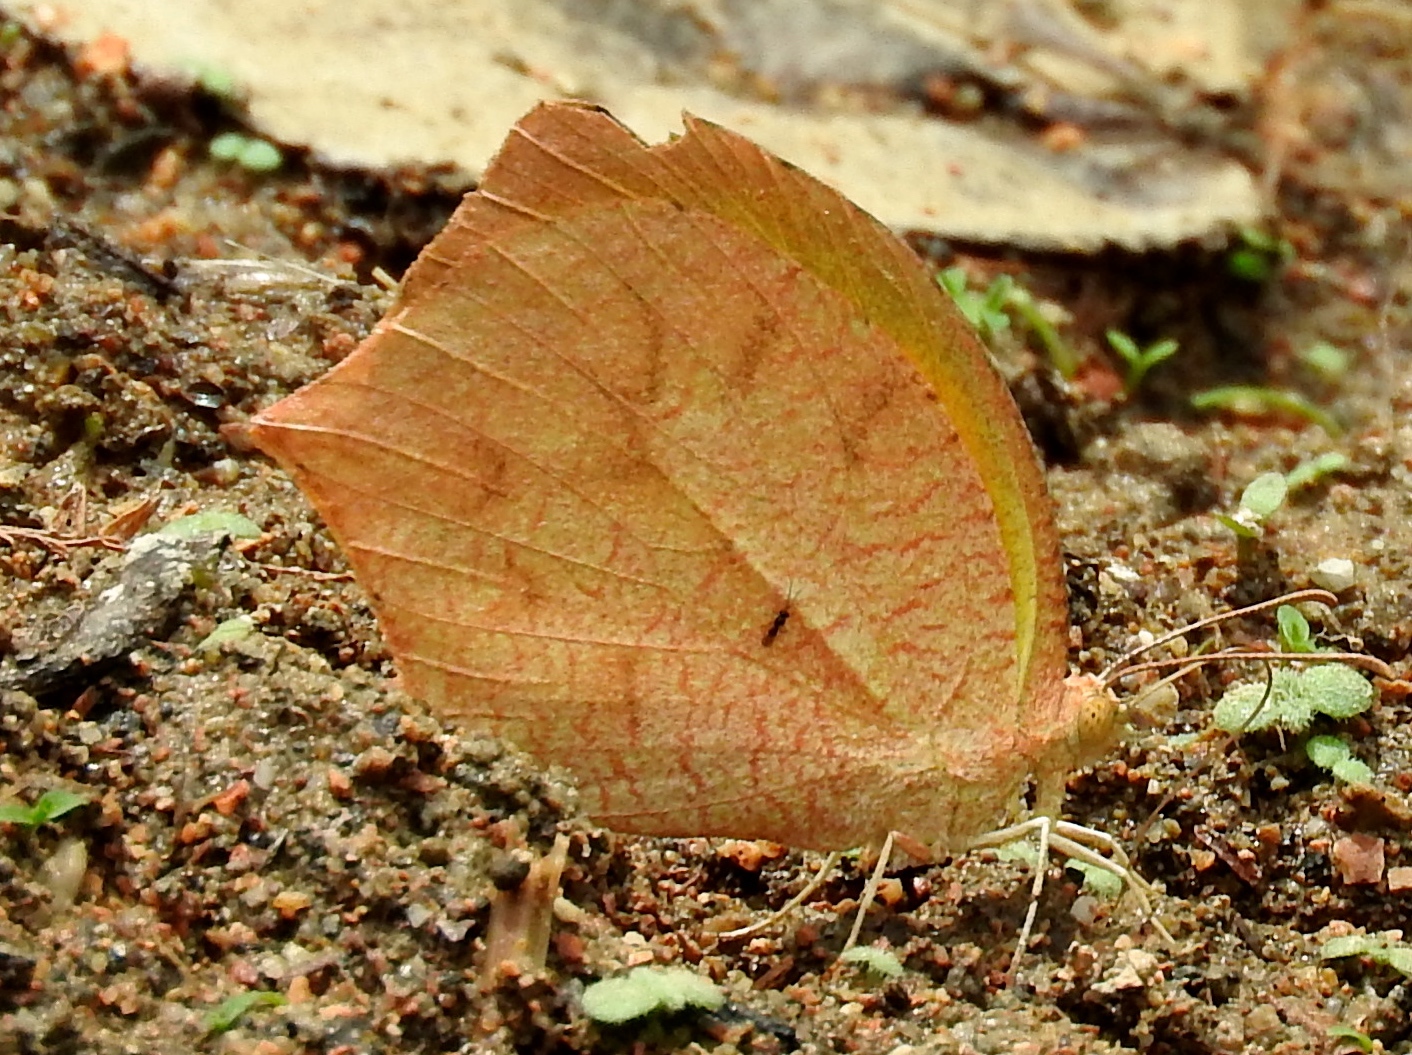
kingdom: Animalia
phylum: Arthropoda
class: Insecta
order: Lepidoptera
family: Pieridae
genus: Pyrisitia
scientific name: Pyrisitia proterpia
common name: Tailed orange
